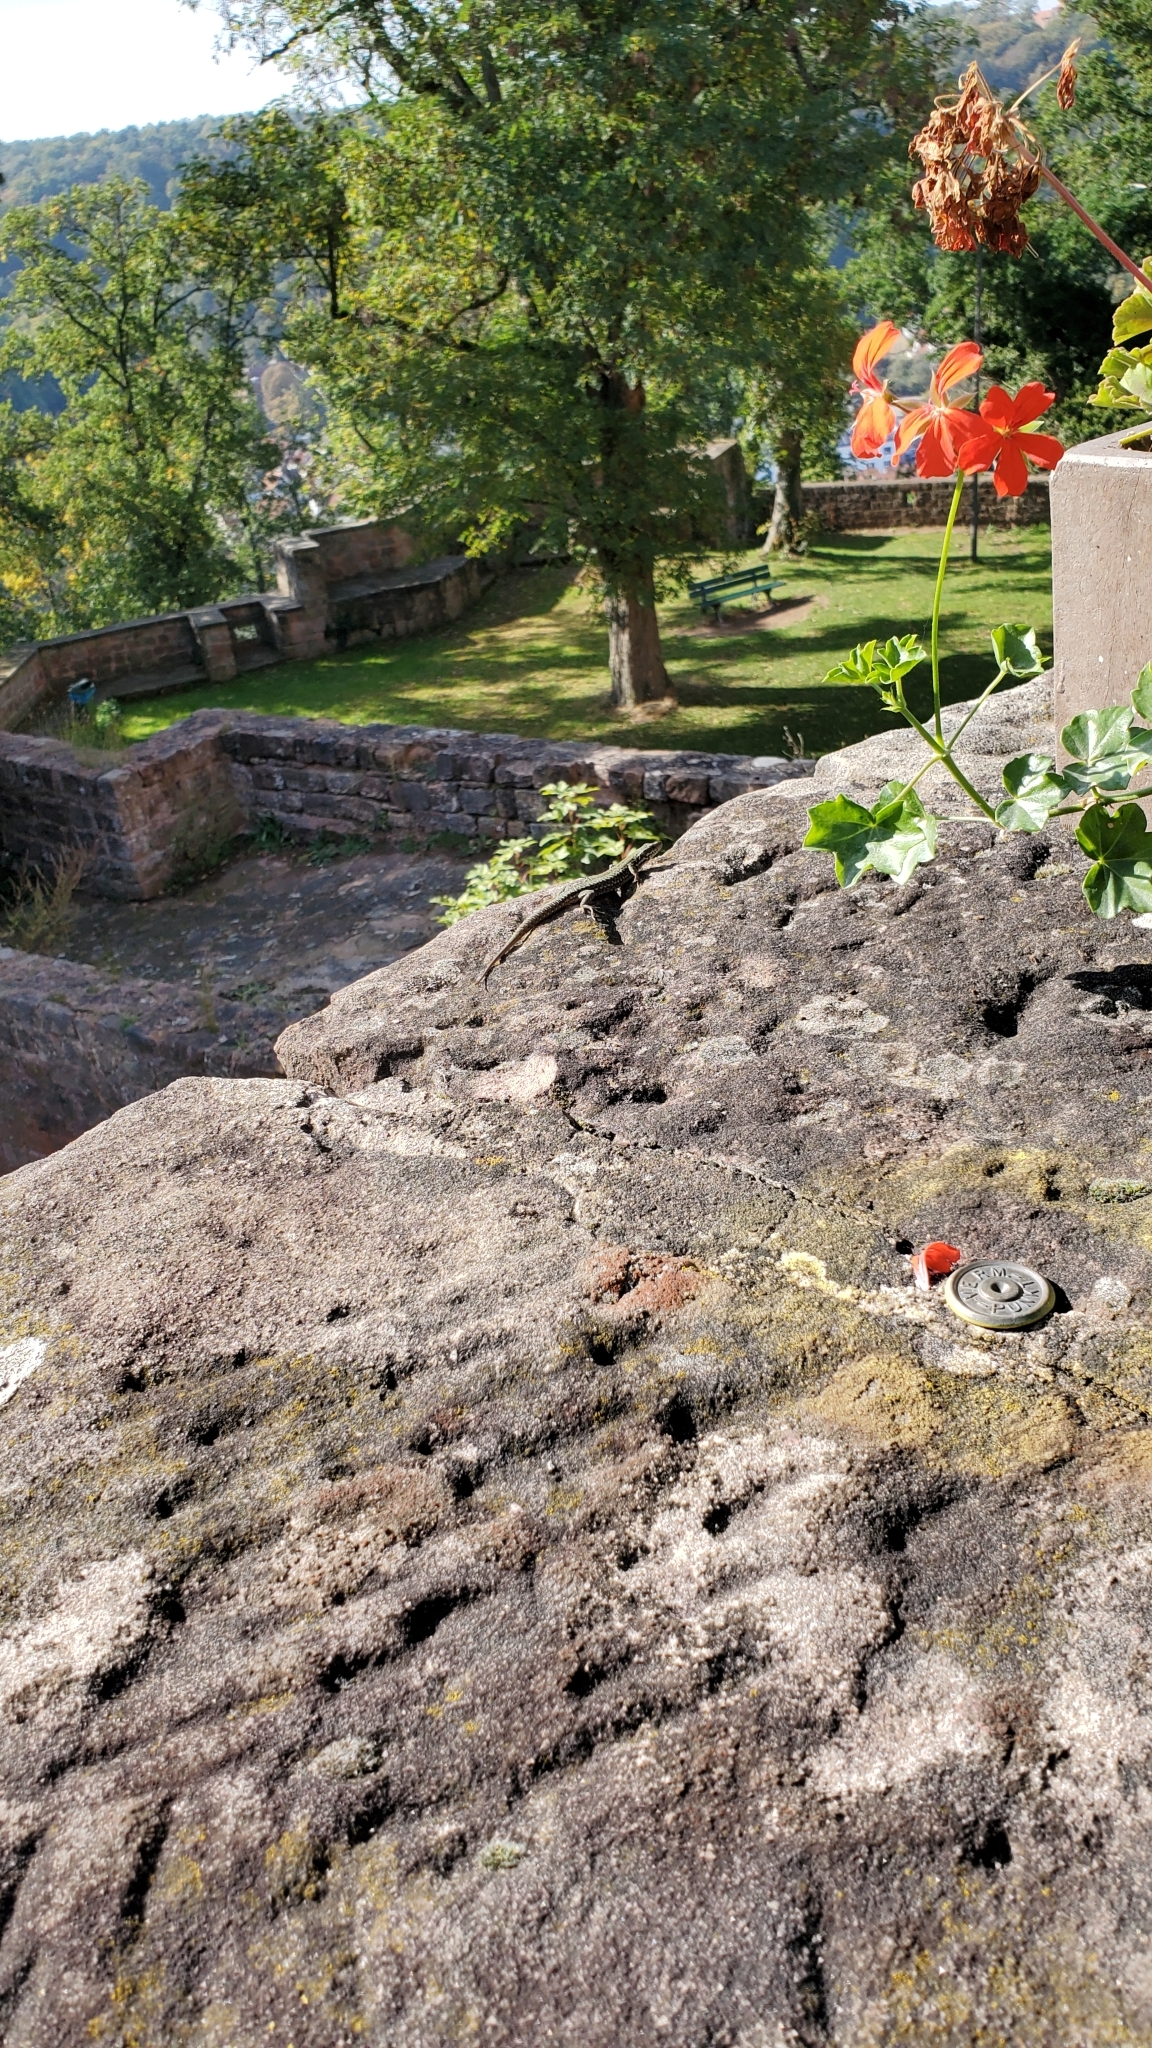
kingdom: Animalia
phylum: Chordata
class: Squamata
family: Lacertidae
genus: Podarcis
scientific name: Podarcis muralis
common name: Common wall lizard
